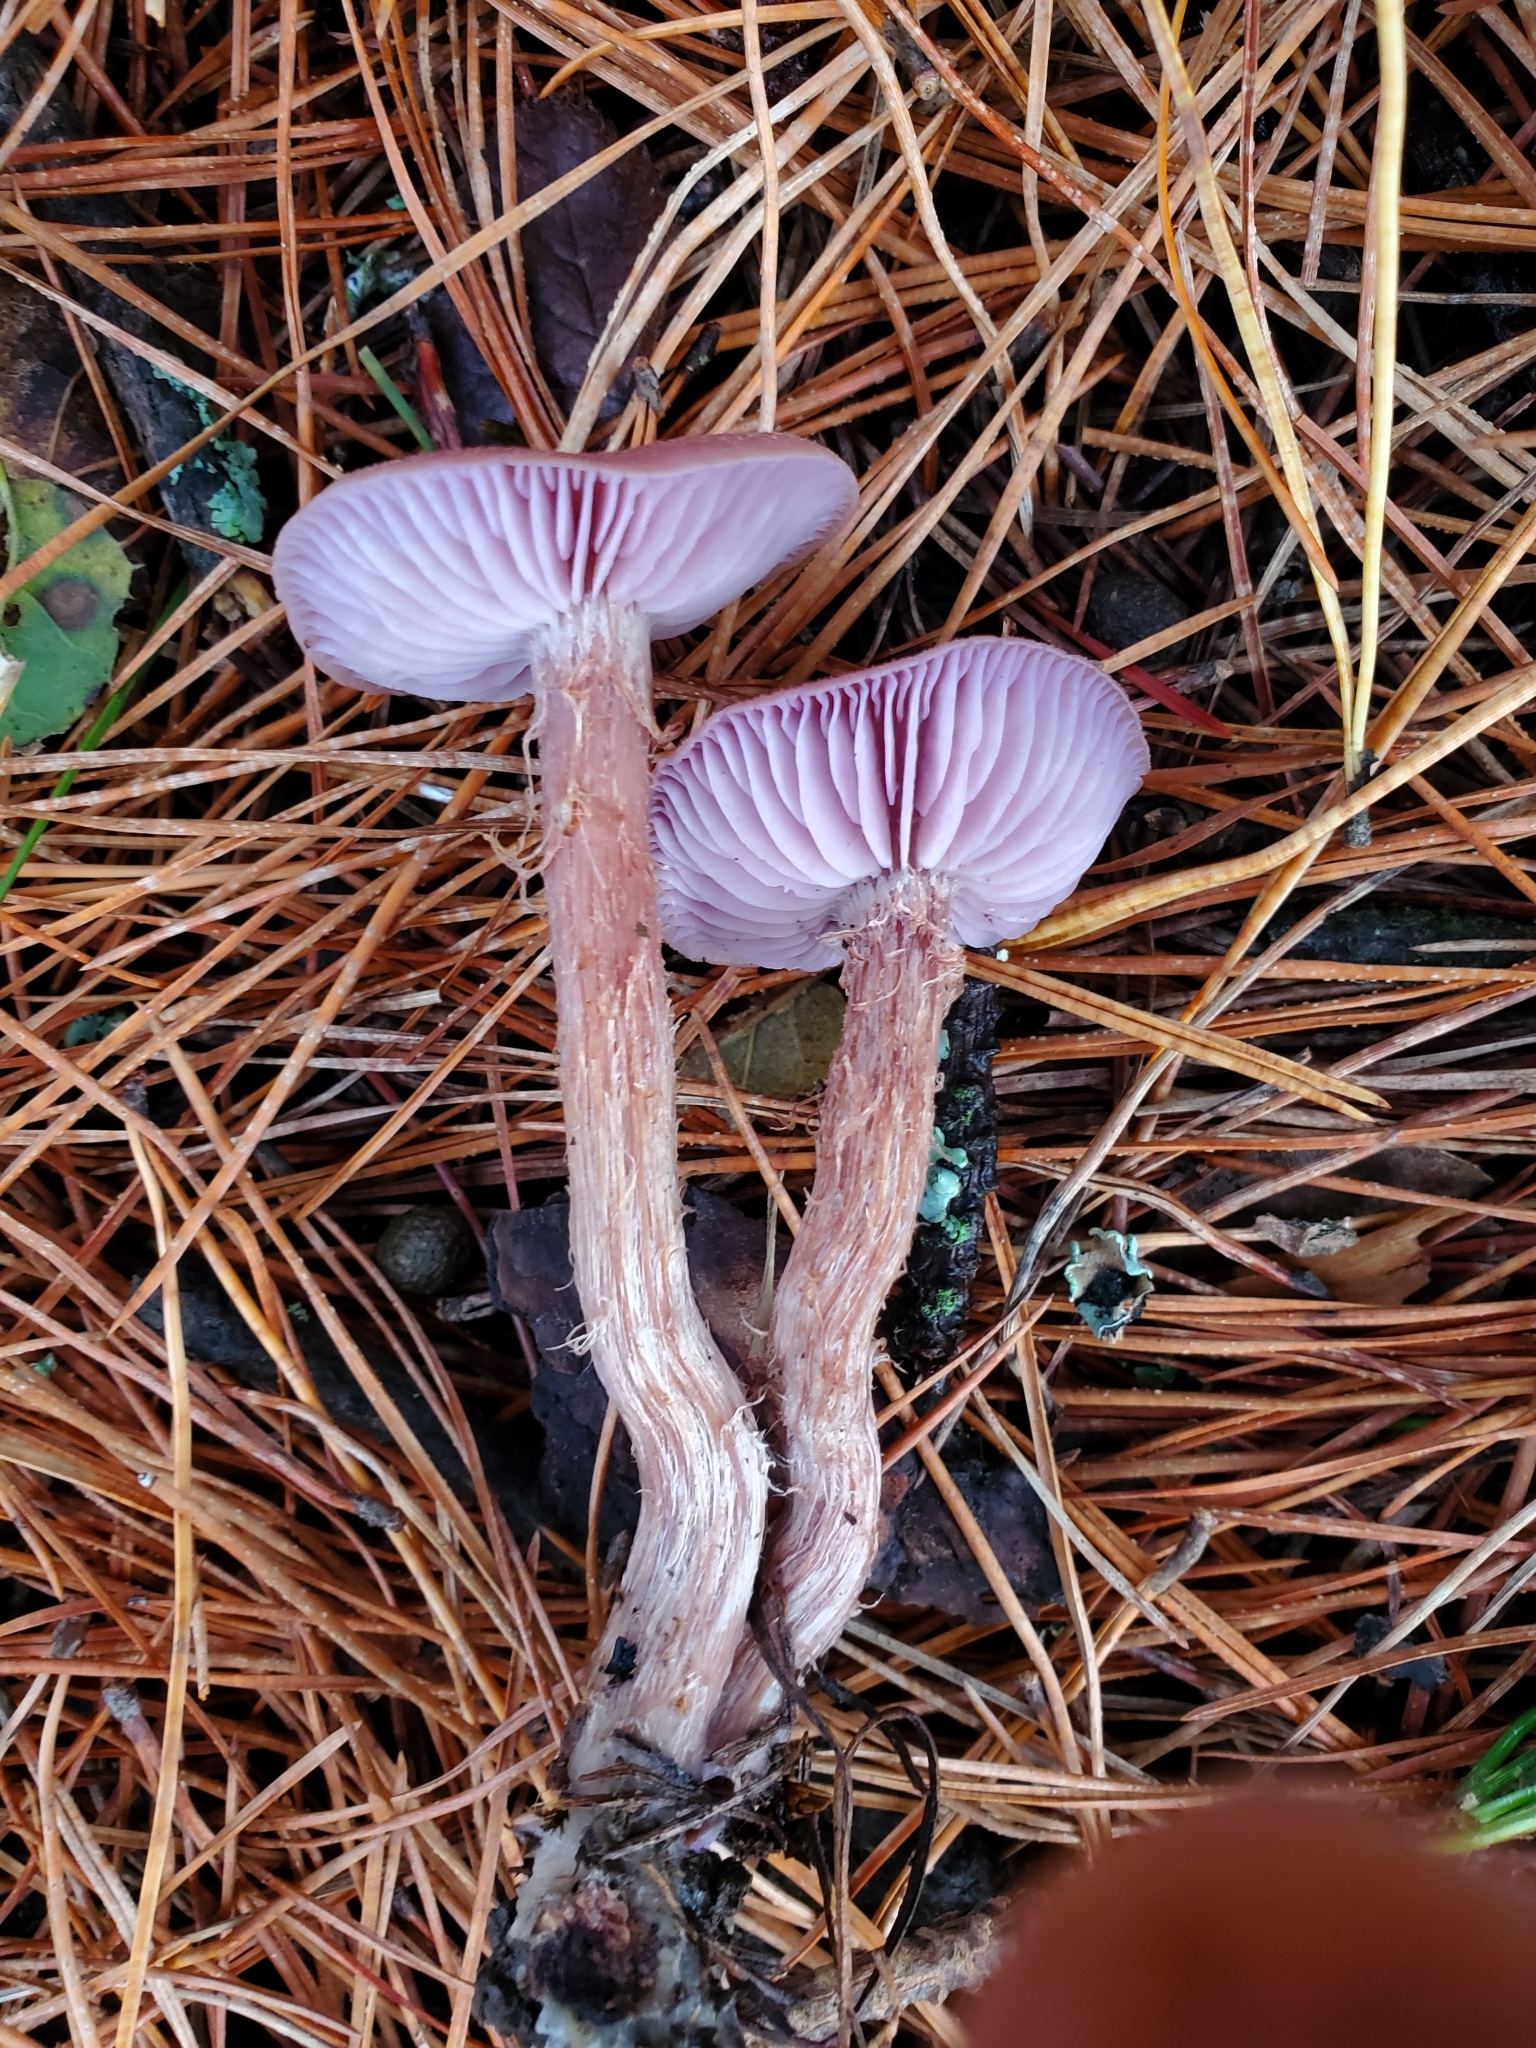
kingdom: Fungi
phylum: Basidiomycota
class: Agaricomycetes
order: Agaricales
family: Hydnangiaceae
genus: Laccaria
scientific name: Laccaria amethysteo-occidentalis
